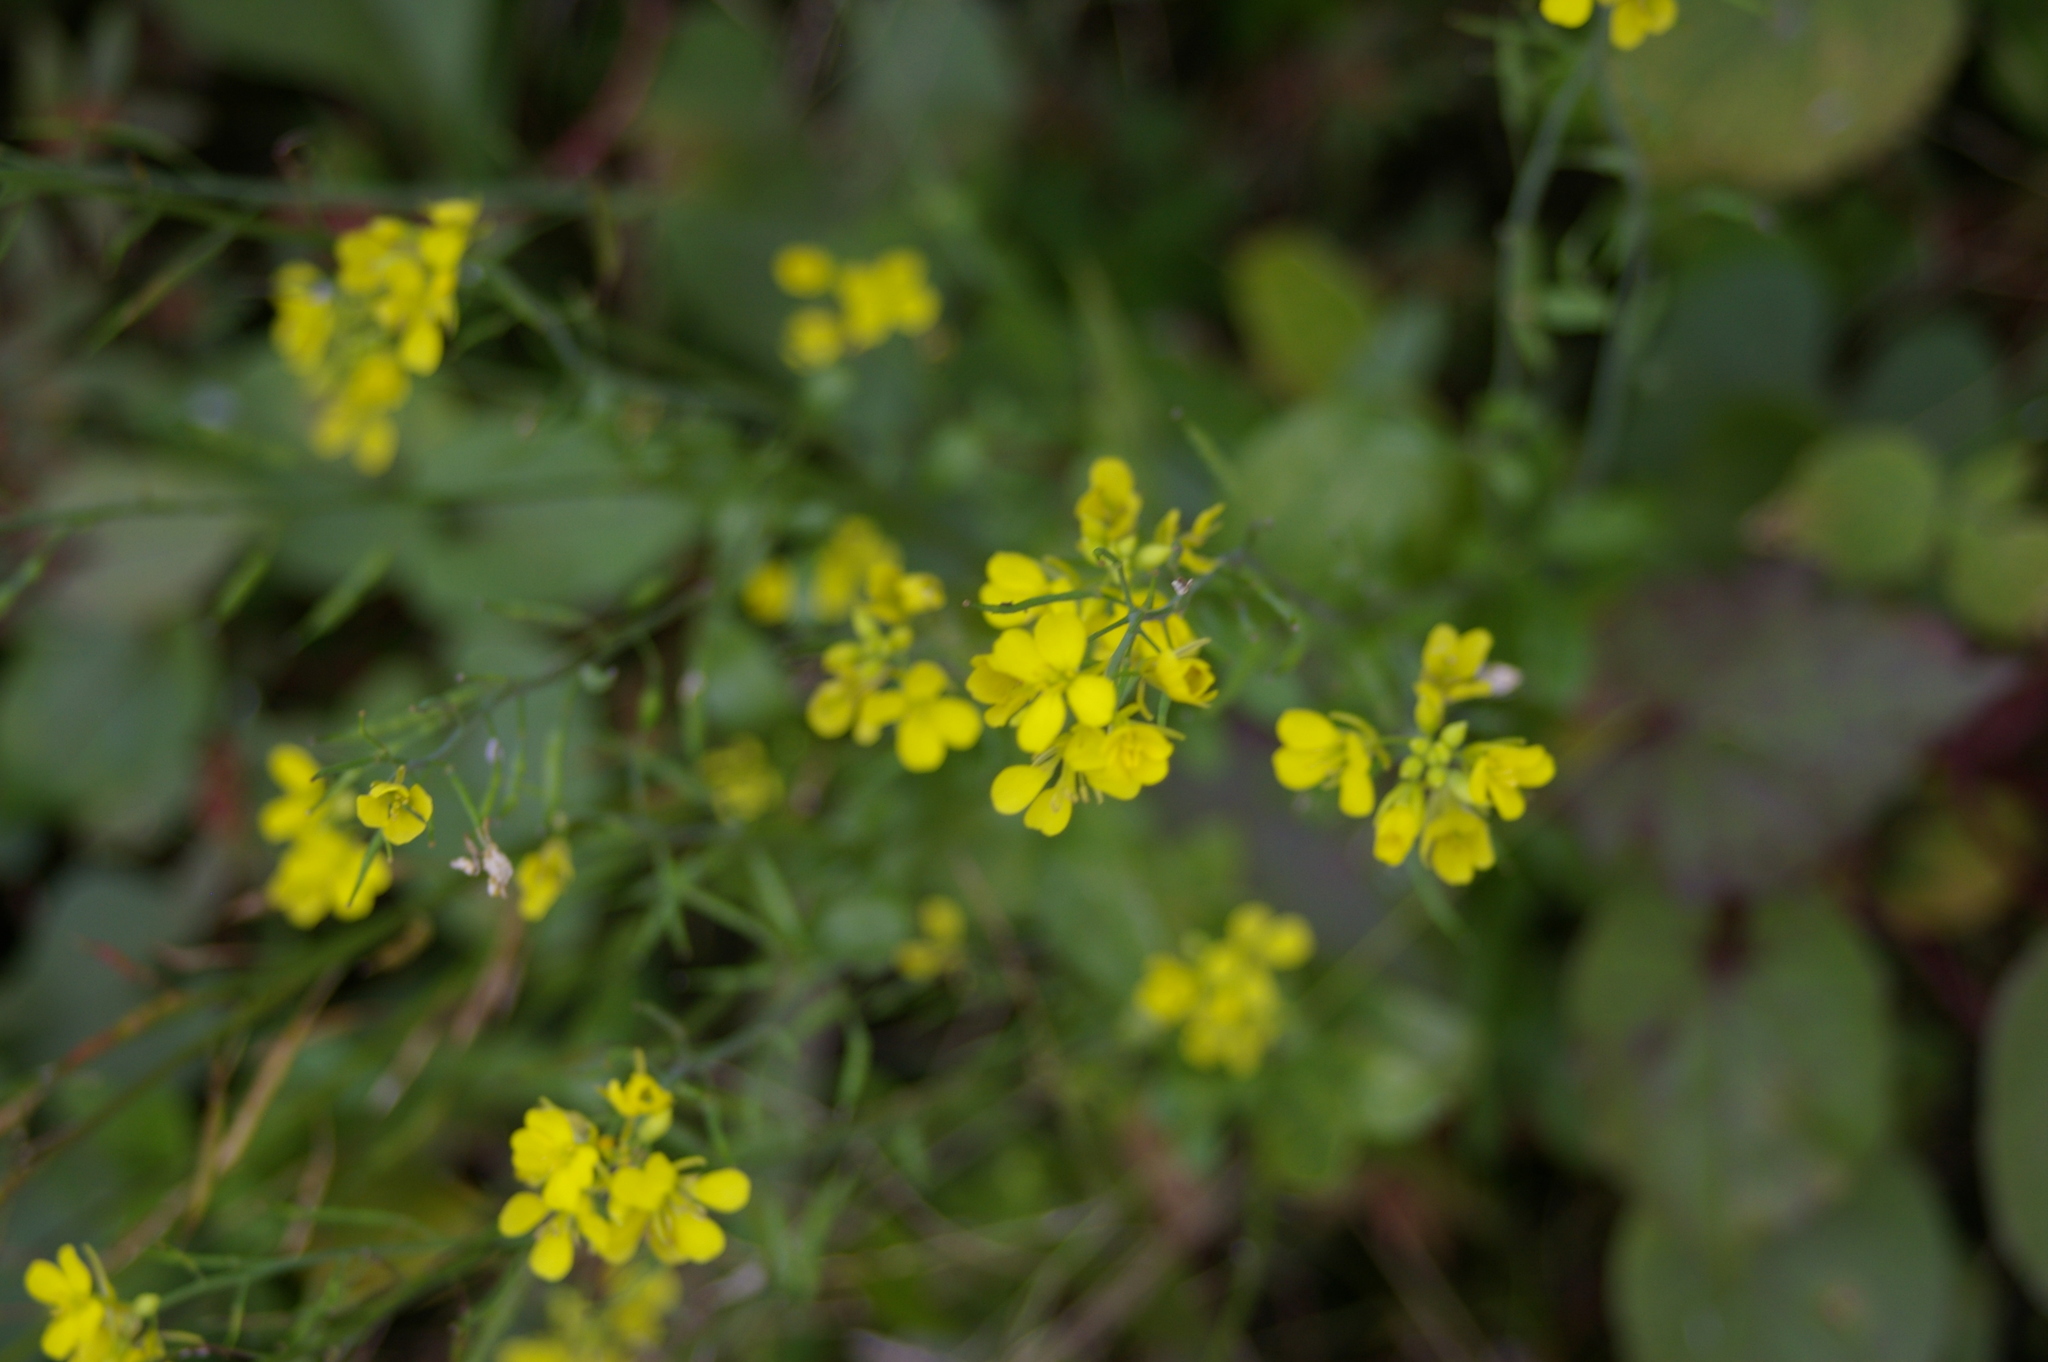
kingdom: Plantae
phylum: Tracheophyta
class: Magnoliopsida
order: Brassicales
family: Brassicaceae
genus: Brassica
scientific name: Brassica rapa
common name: Field mustard
